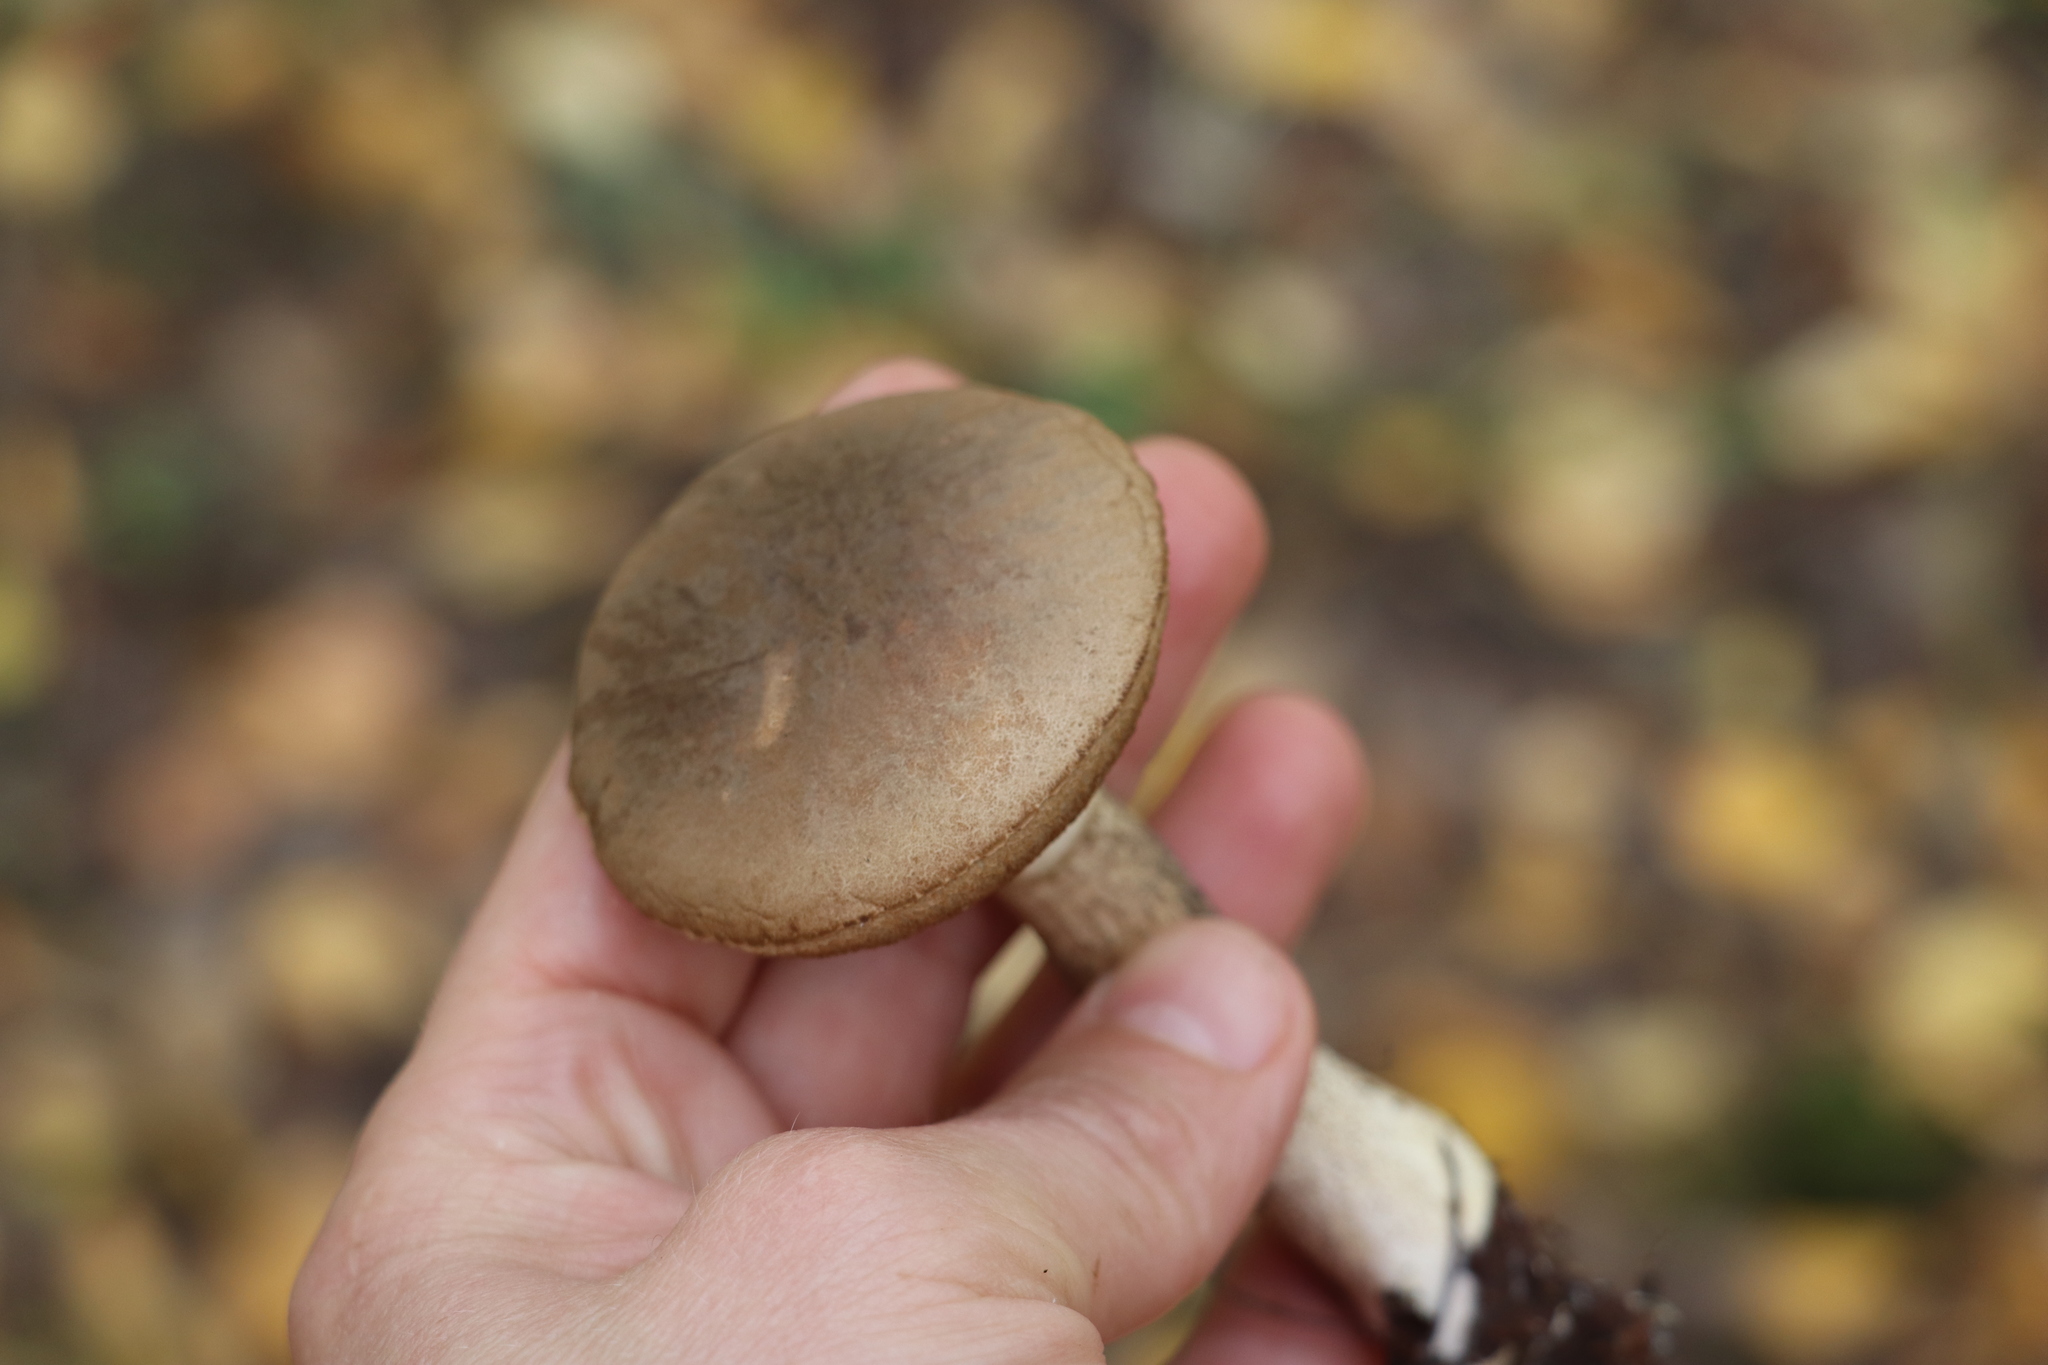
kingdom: Fungi
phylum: Basidiomycota
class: Agaricomycetes
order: Boletales
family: Boletaceae
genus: Leccinum
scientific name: Leccinum scabrum
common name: Blushing bolete
